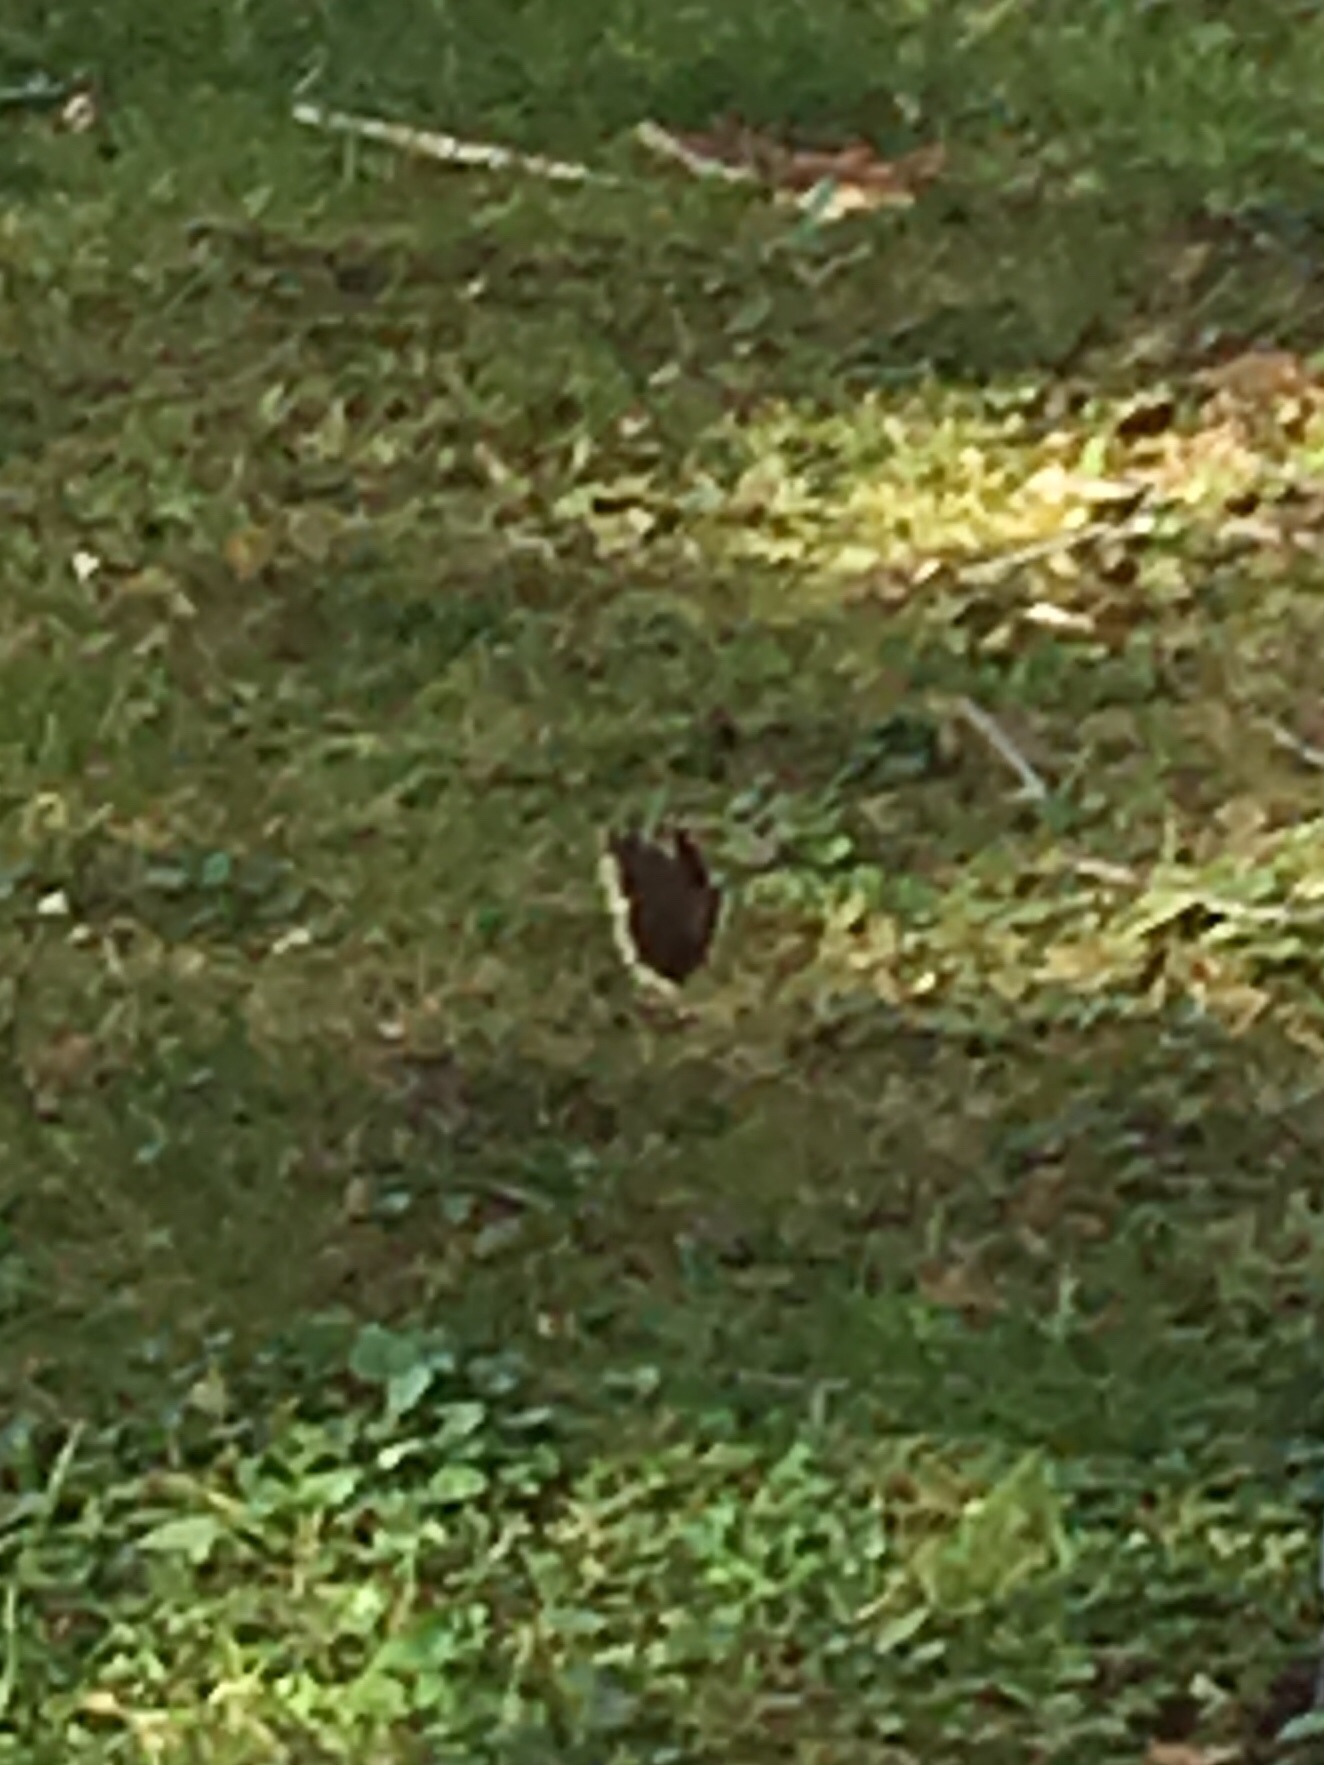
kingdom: Animalia
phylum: Arthropoda
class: Insecta
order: Lepidoptera
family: Nymphalidae
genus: Nymphalis
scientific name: Nymphalis antiopa
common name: Camberwell beauty
